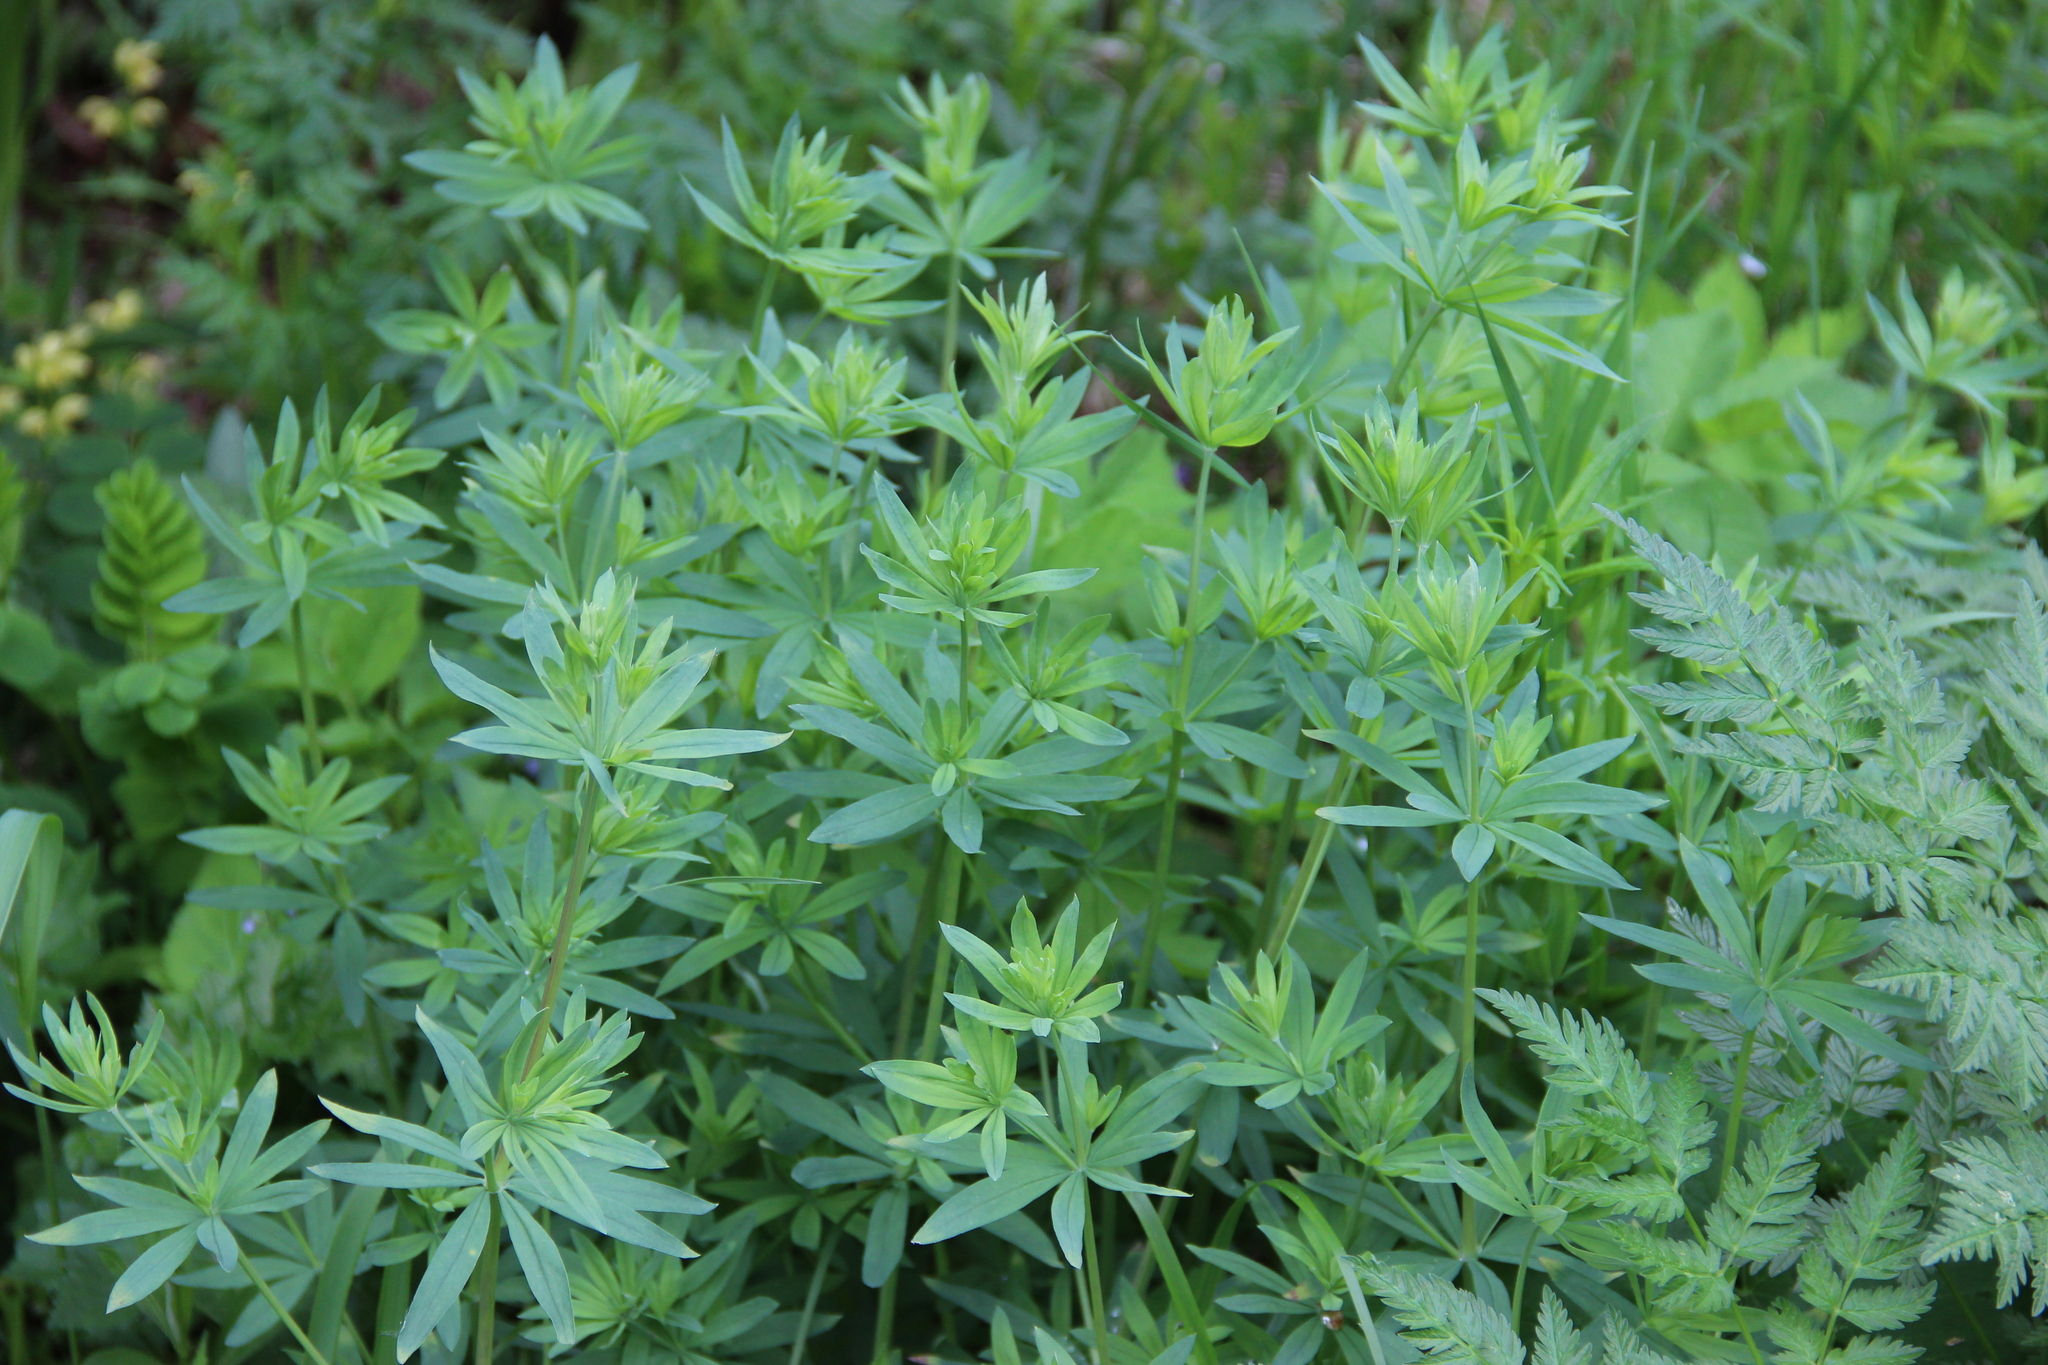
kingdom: Plantae
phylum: Tracheophyta
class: Magnoliopsida
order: Gentianales
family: Rubiaceae
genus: Galium
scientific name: Galium intermedium
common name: Bedstraw
